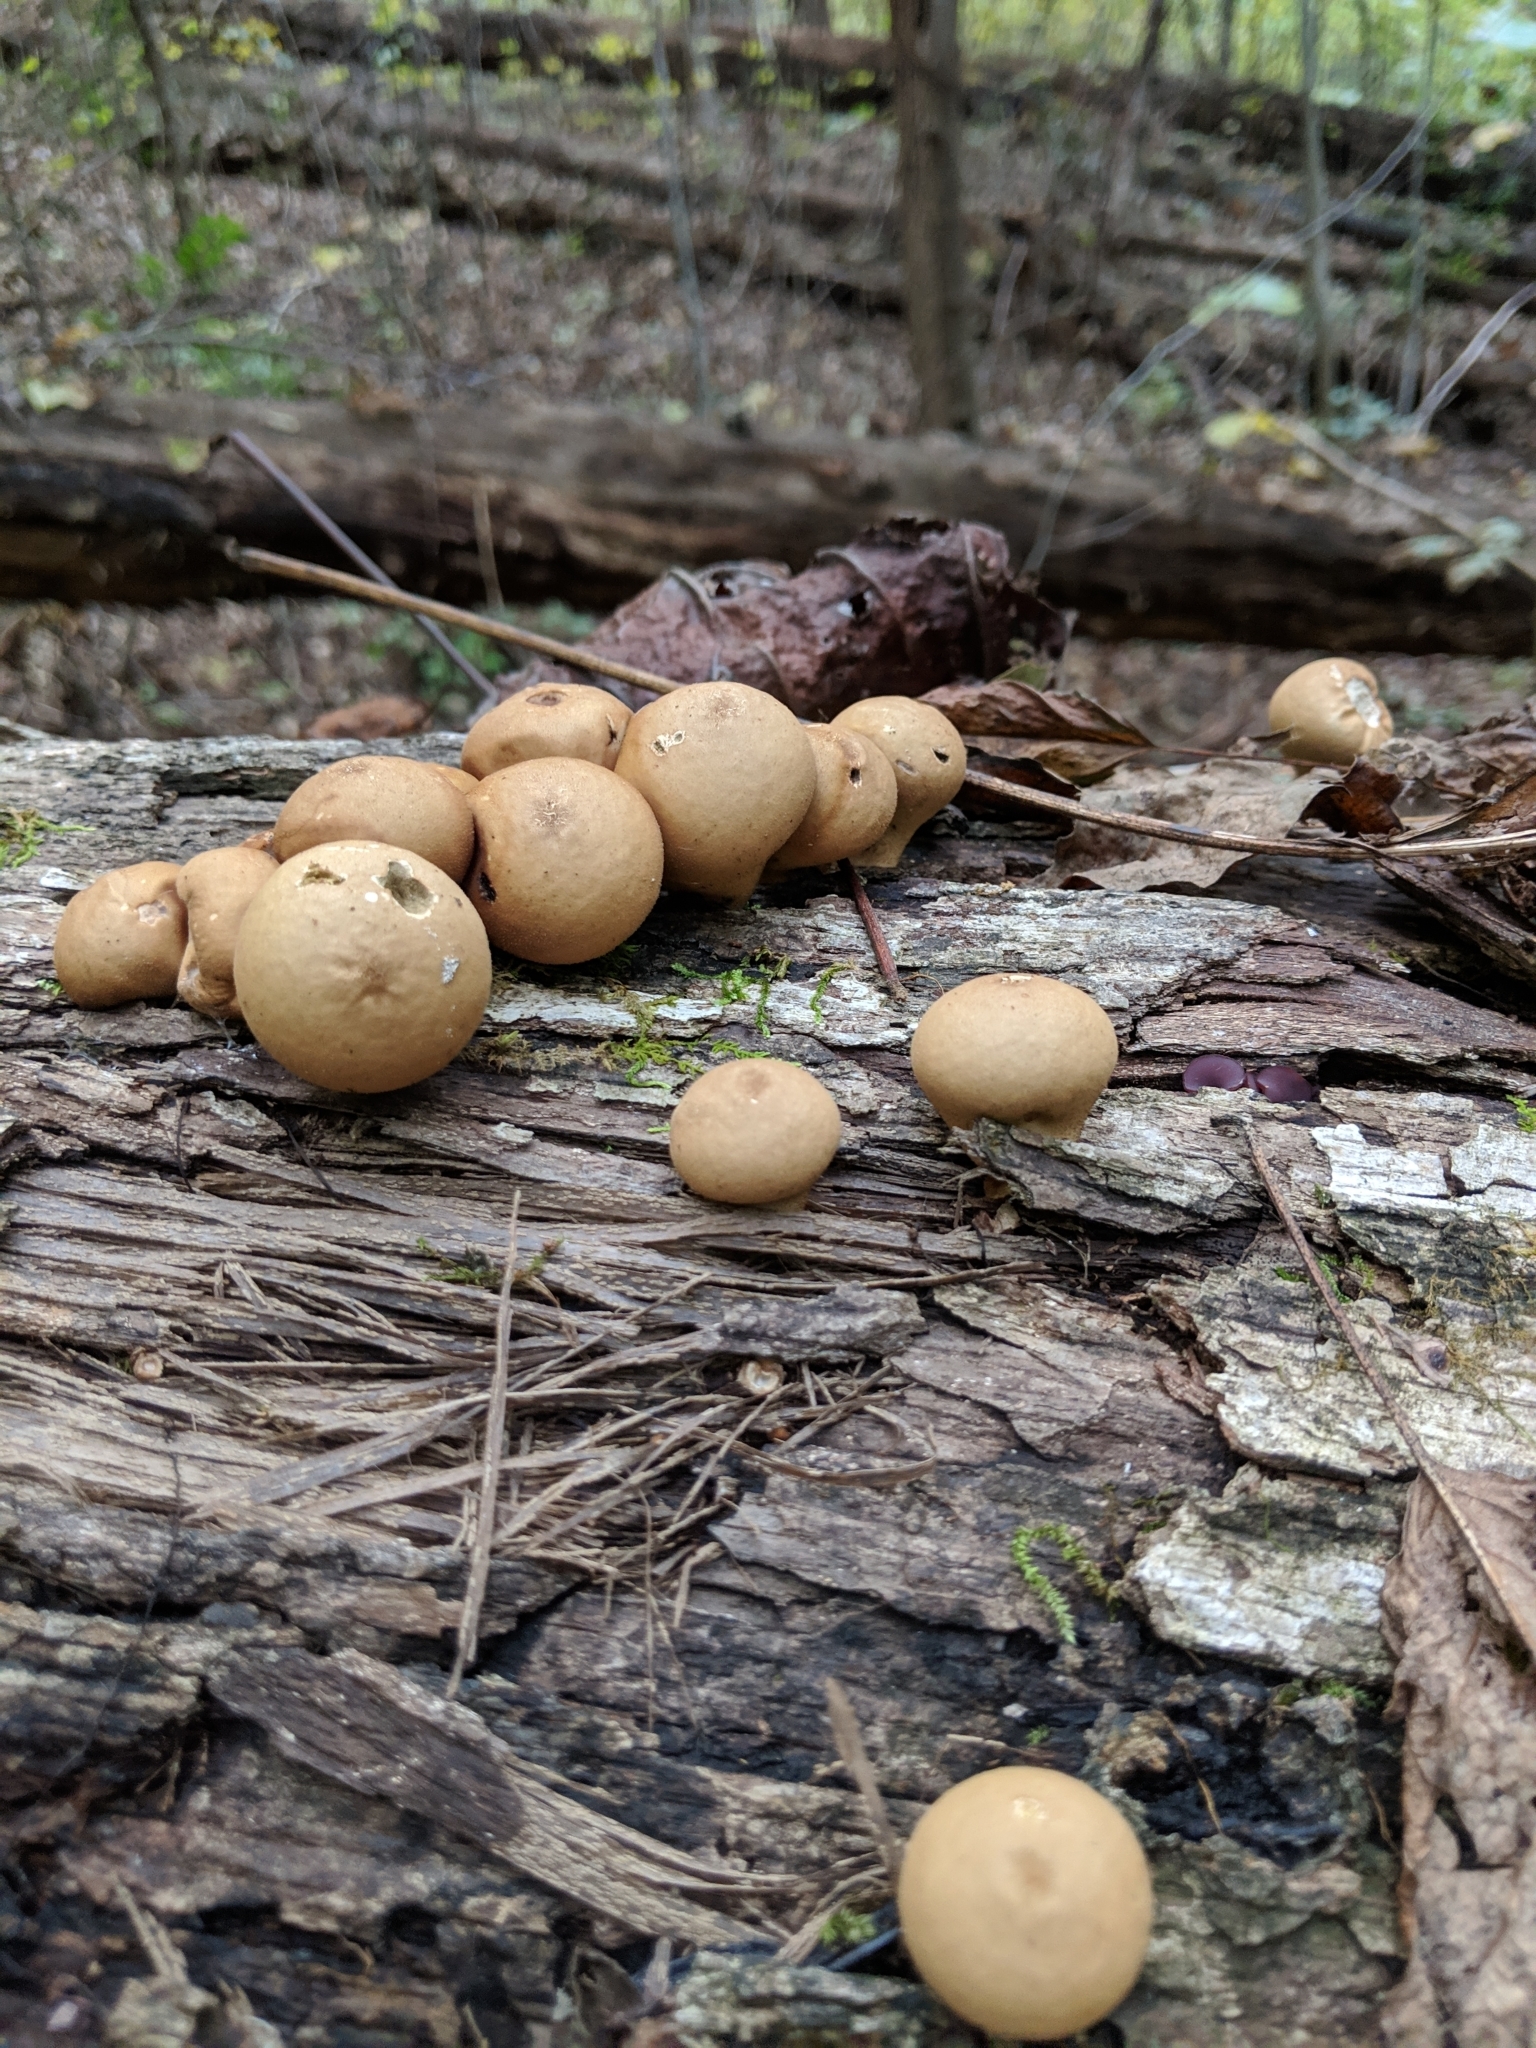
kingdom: Fungi
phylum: Basidiomycota
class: Agaricomycetes
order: Agaricales
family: Lycoperdaceae
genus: Apioperdon
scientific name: Apioperdon pyriforme
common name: Pear-shaped puffball
